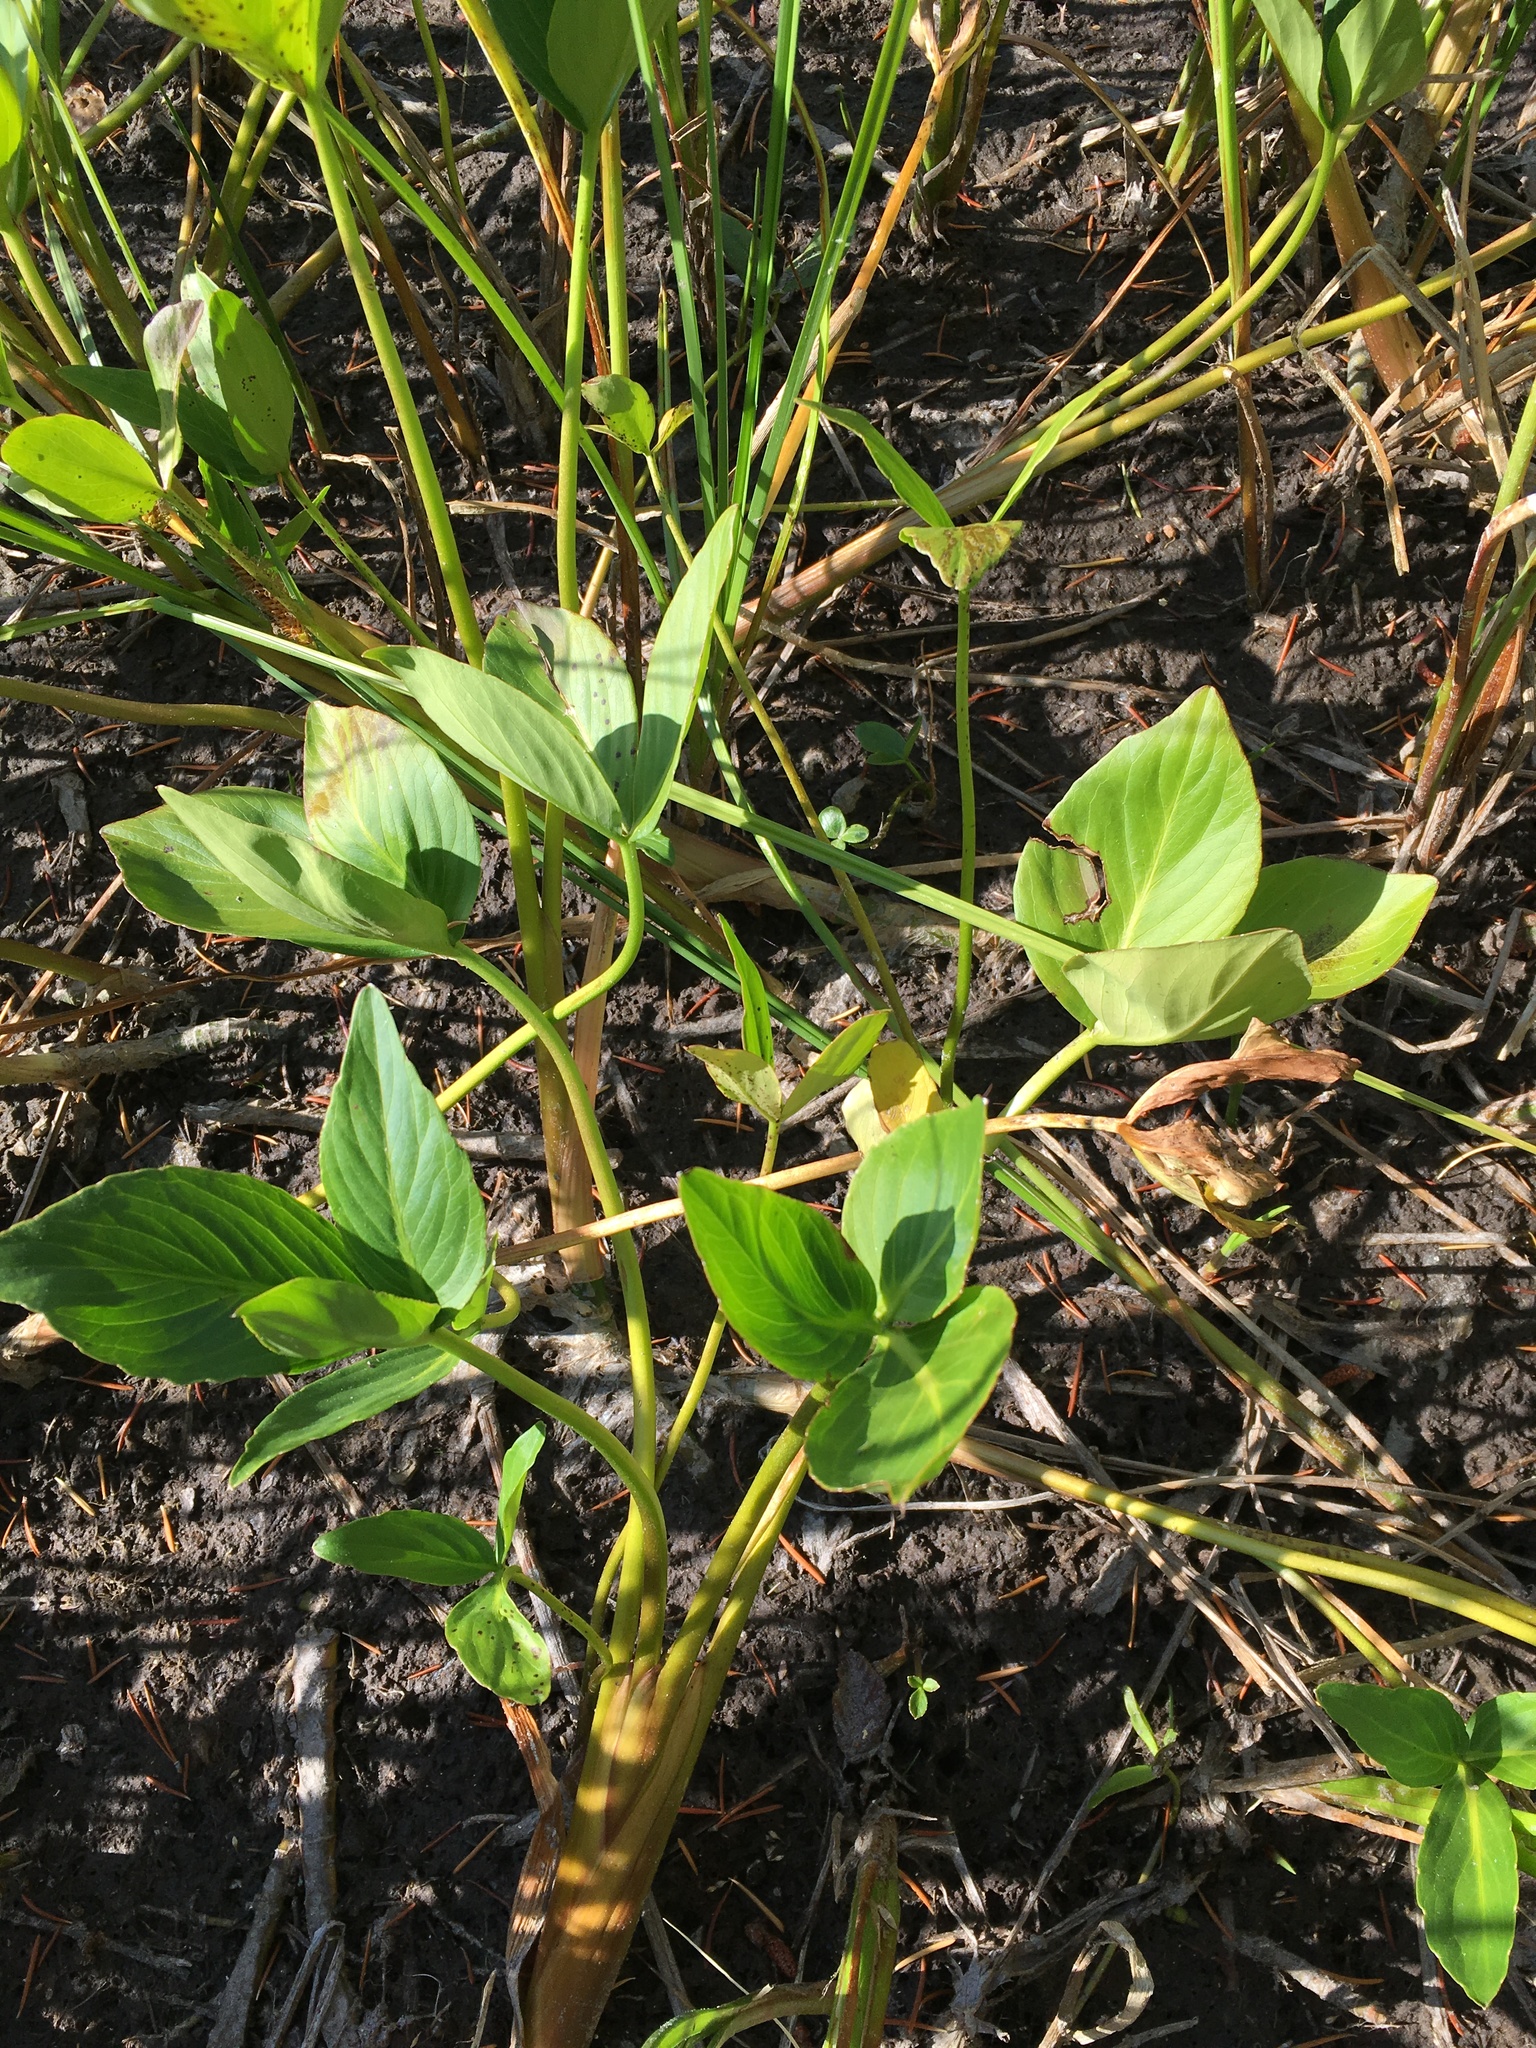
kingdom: Plantae
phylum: Tracheophyta
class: Magnoliopsida
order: Asterales
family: Menyanthaceae
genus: Menyanthes
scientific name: Menyanthes trifoliata
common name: Bogbean
